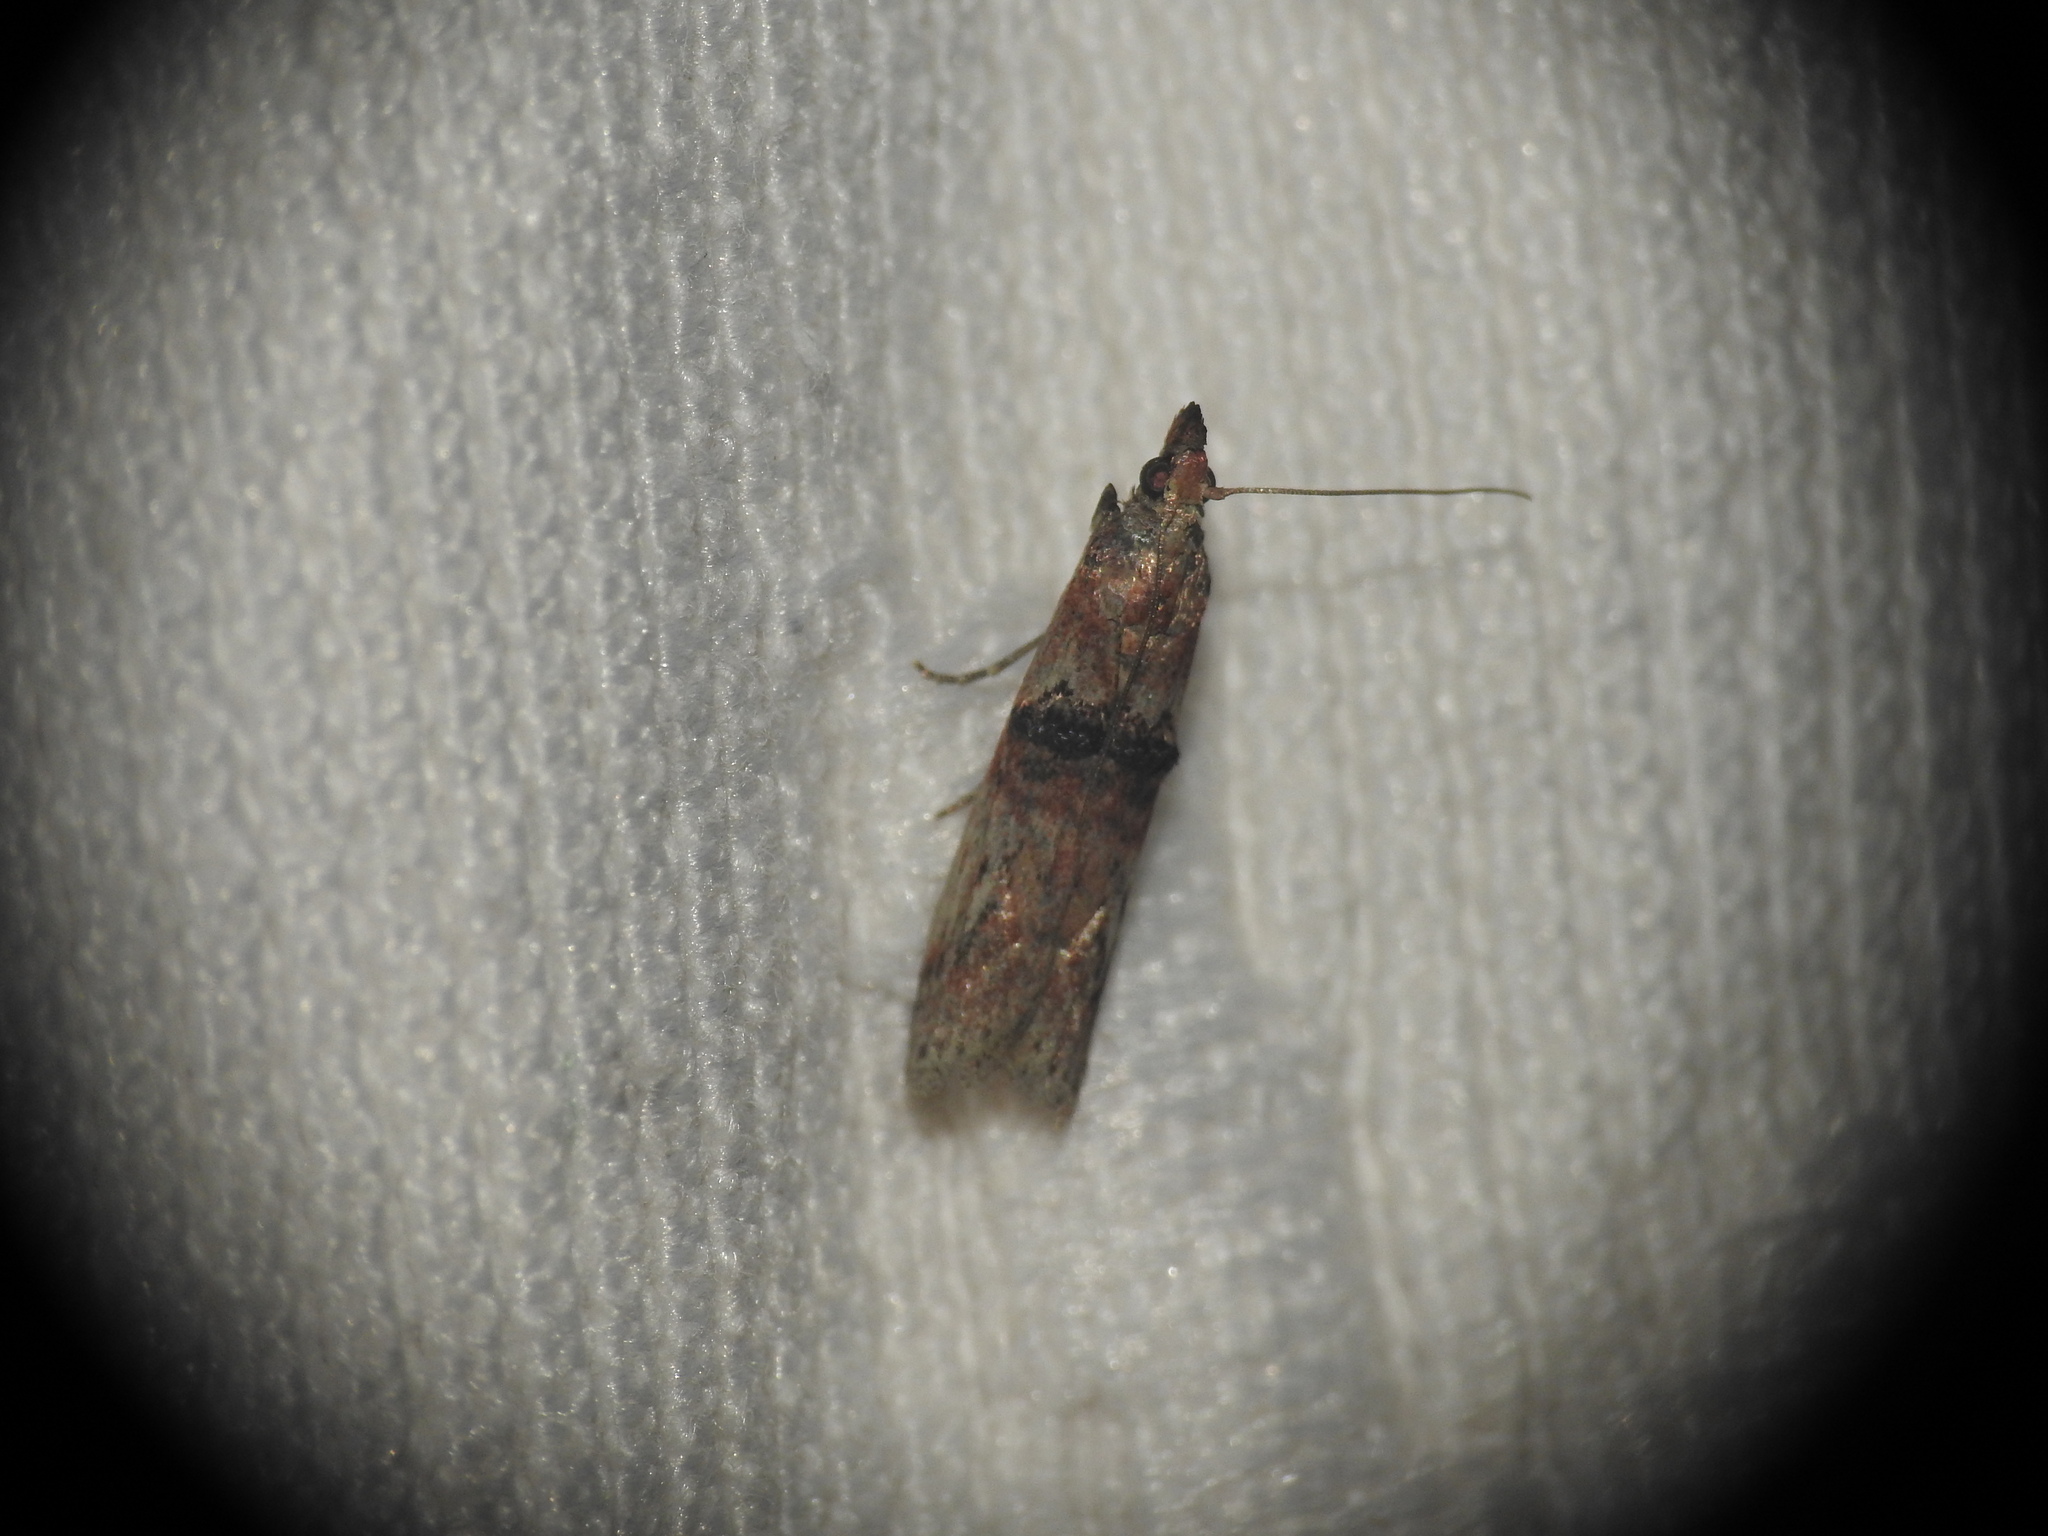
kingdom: Animalia
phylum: Arthropoda
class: Insecta
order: Lepidoptera
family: Pyralidae
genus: Nephopterix
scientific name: Nephopterix angustella
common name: Spindle knot-horn
